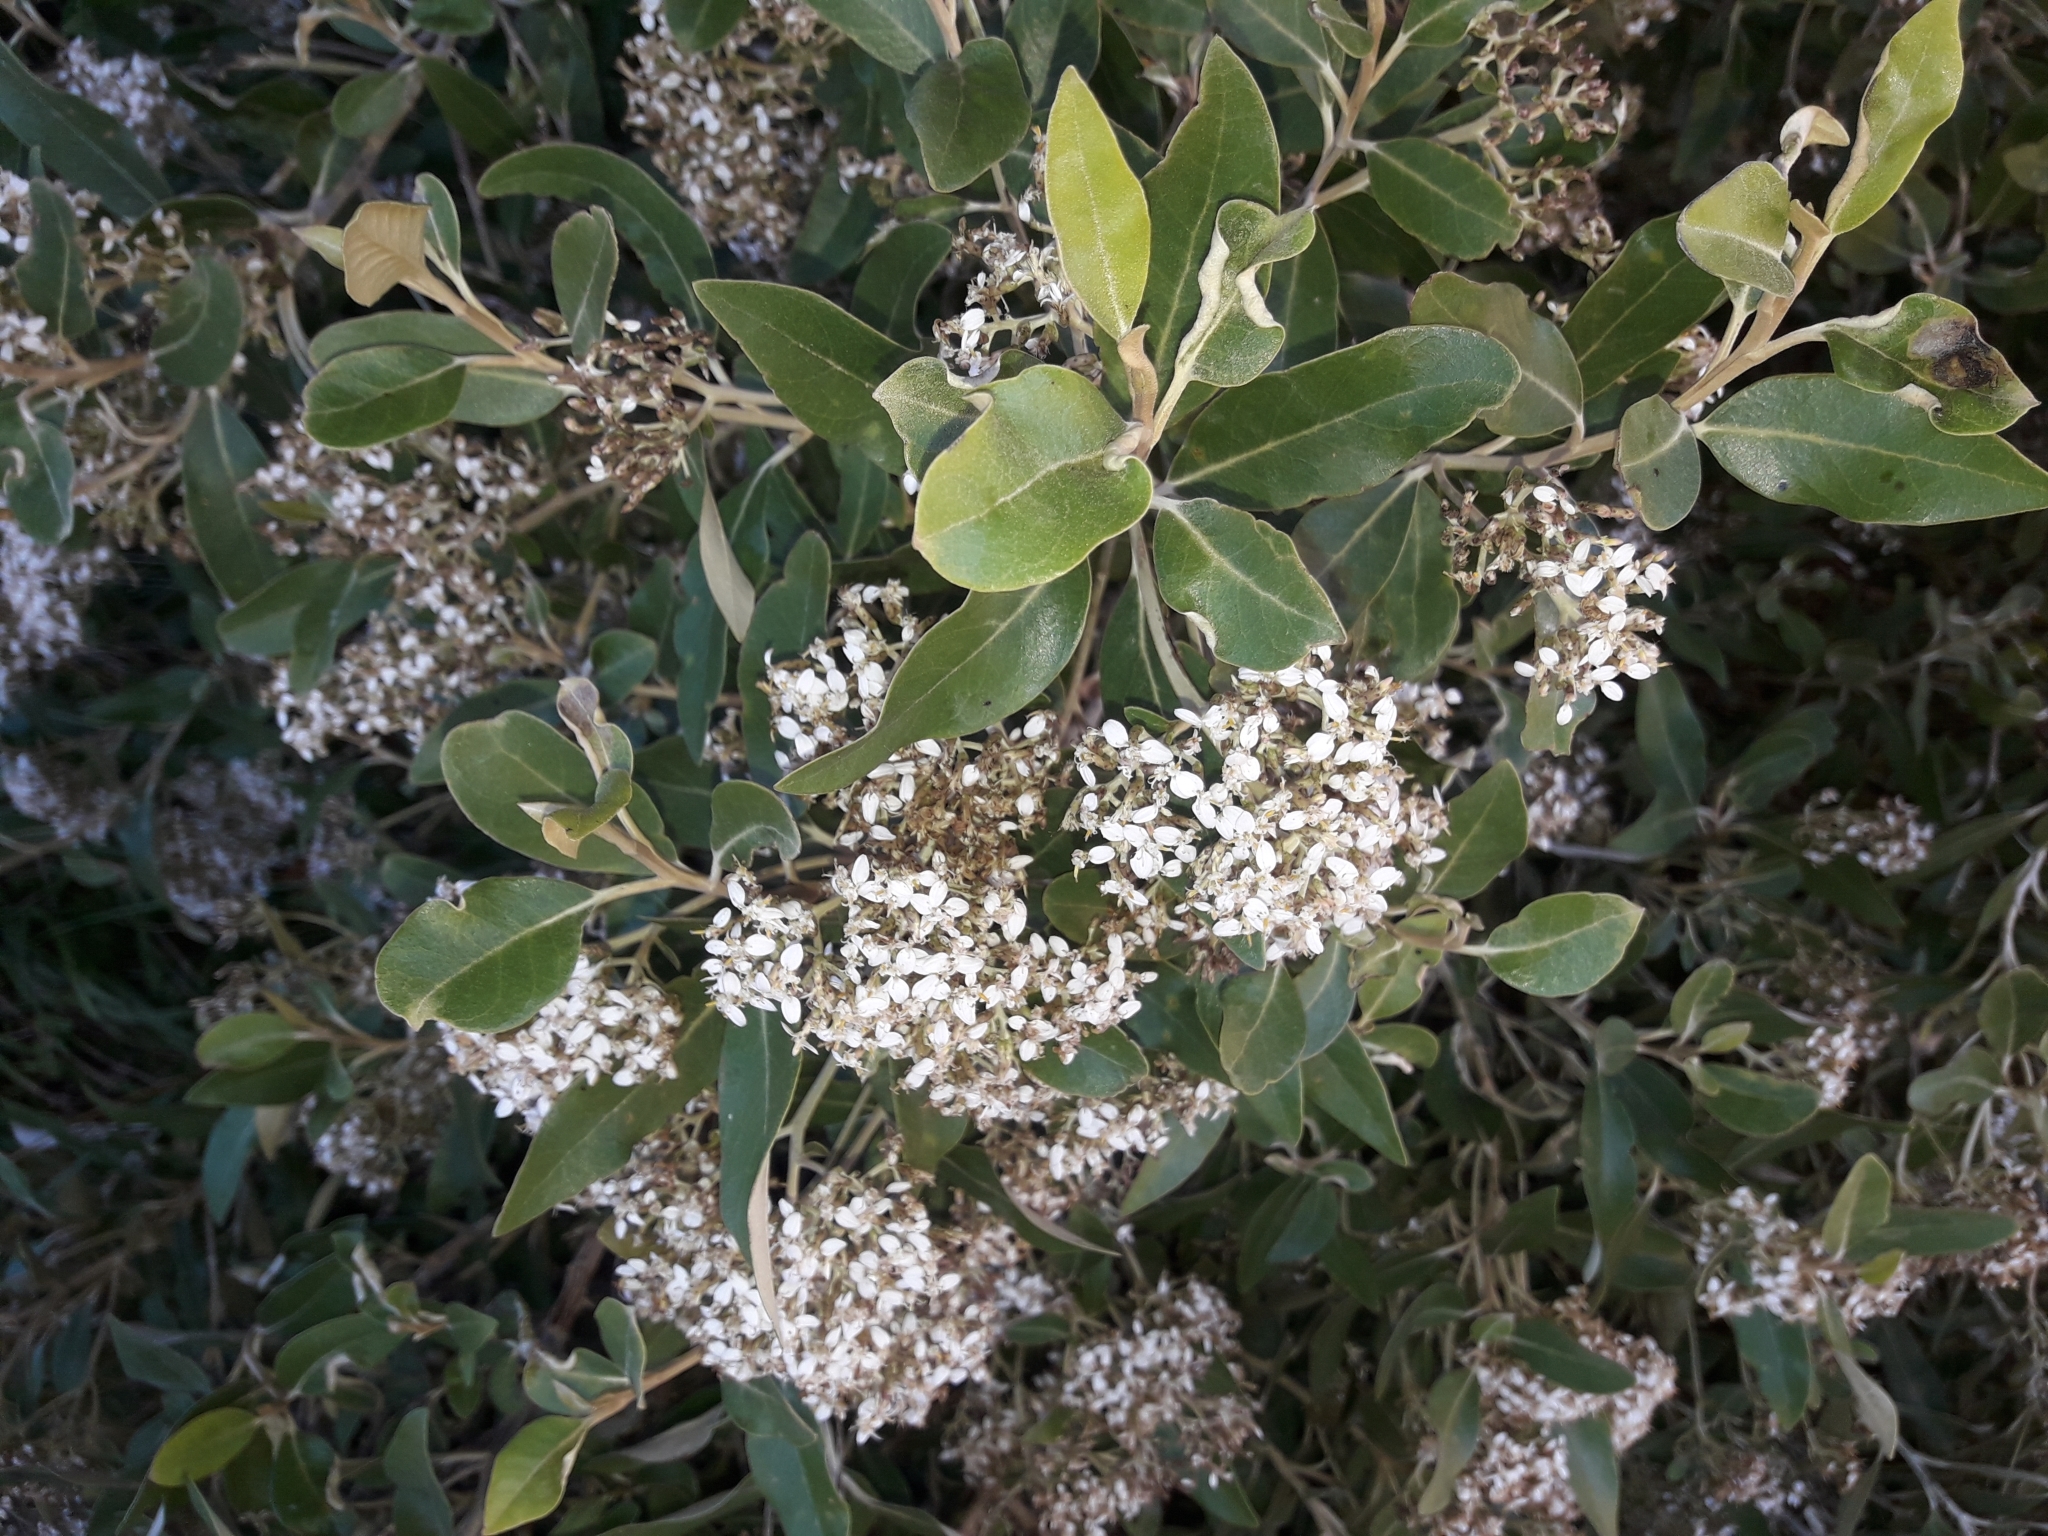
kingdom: Plantae
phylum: Tracheophyta
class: Magnoliopsida
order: Asterales
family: Asteraceae
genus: Olearia
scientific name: Olearia avicenniifolia
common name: Mangrove-leaf daisybush
